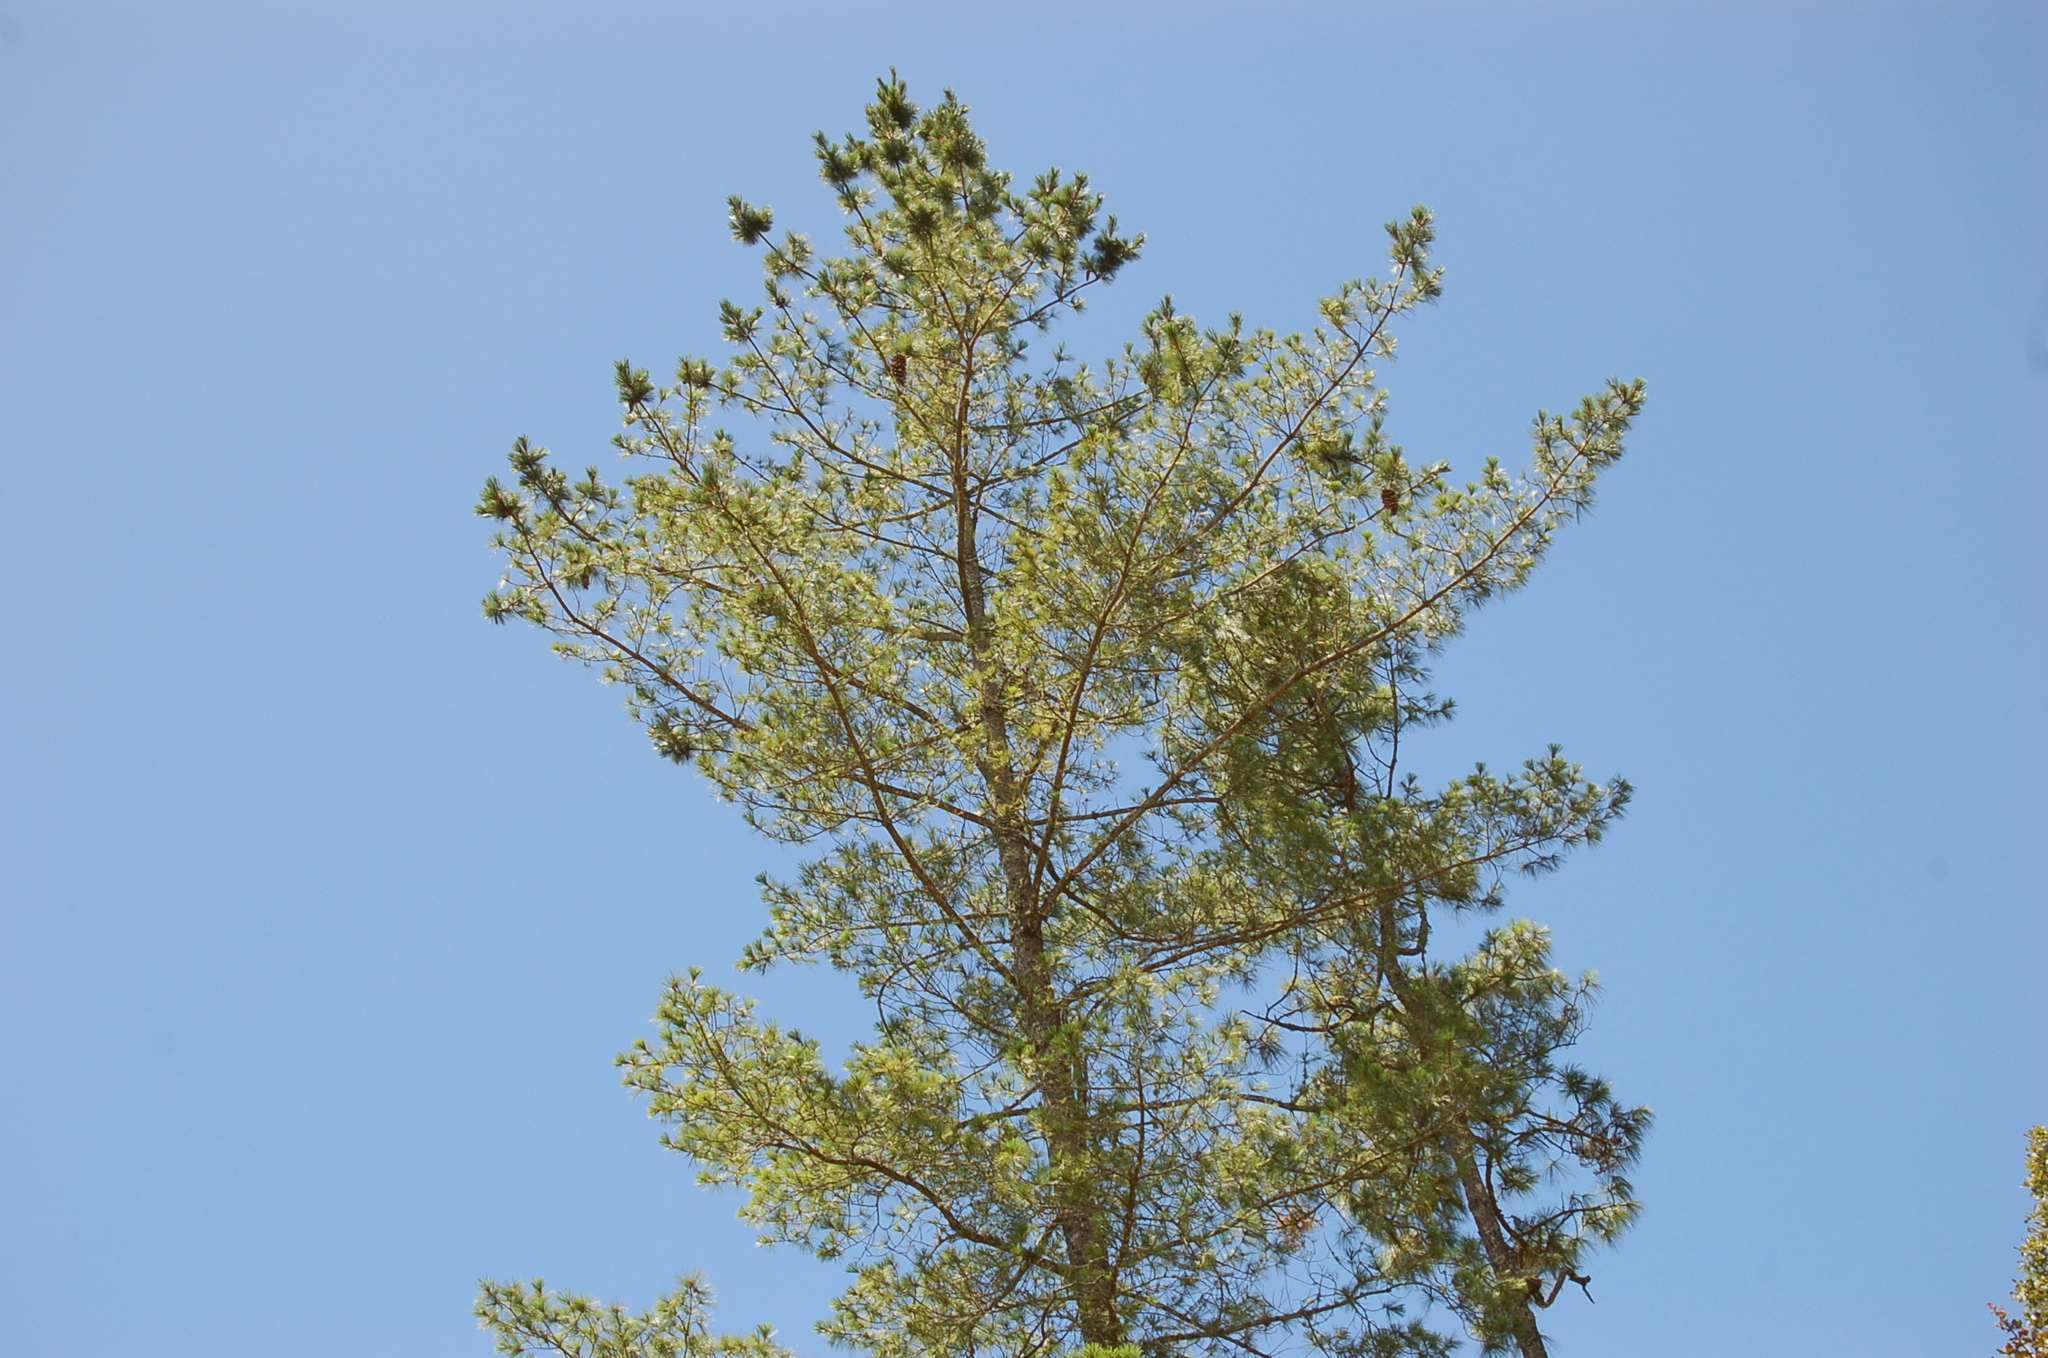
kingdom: Plantae
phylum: Tracheophyta
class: Pinopsida
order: Pinales
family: Pinaceae
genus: Pinus
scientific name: Pinus ayacahuite
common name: Mexican white pine
